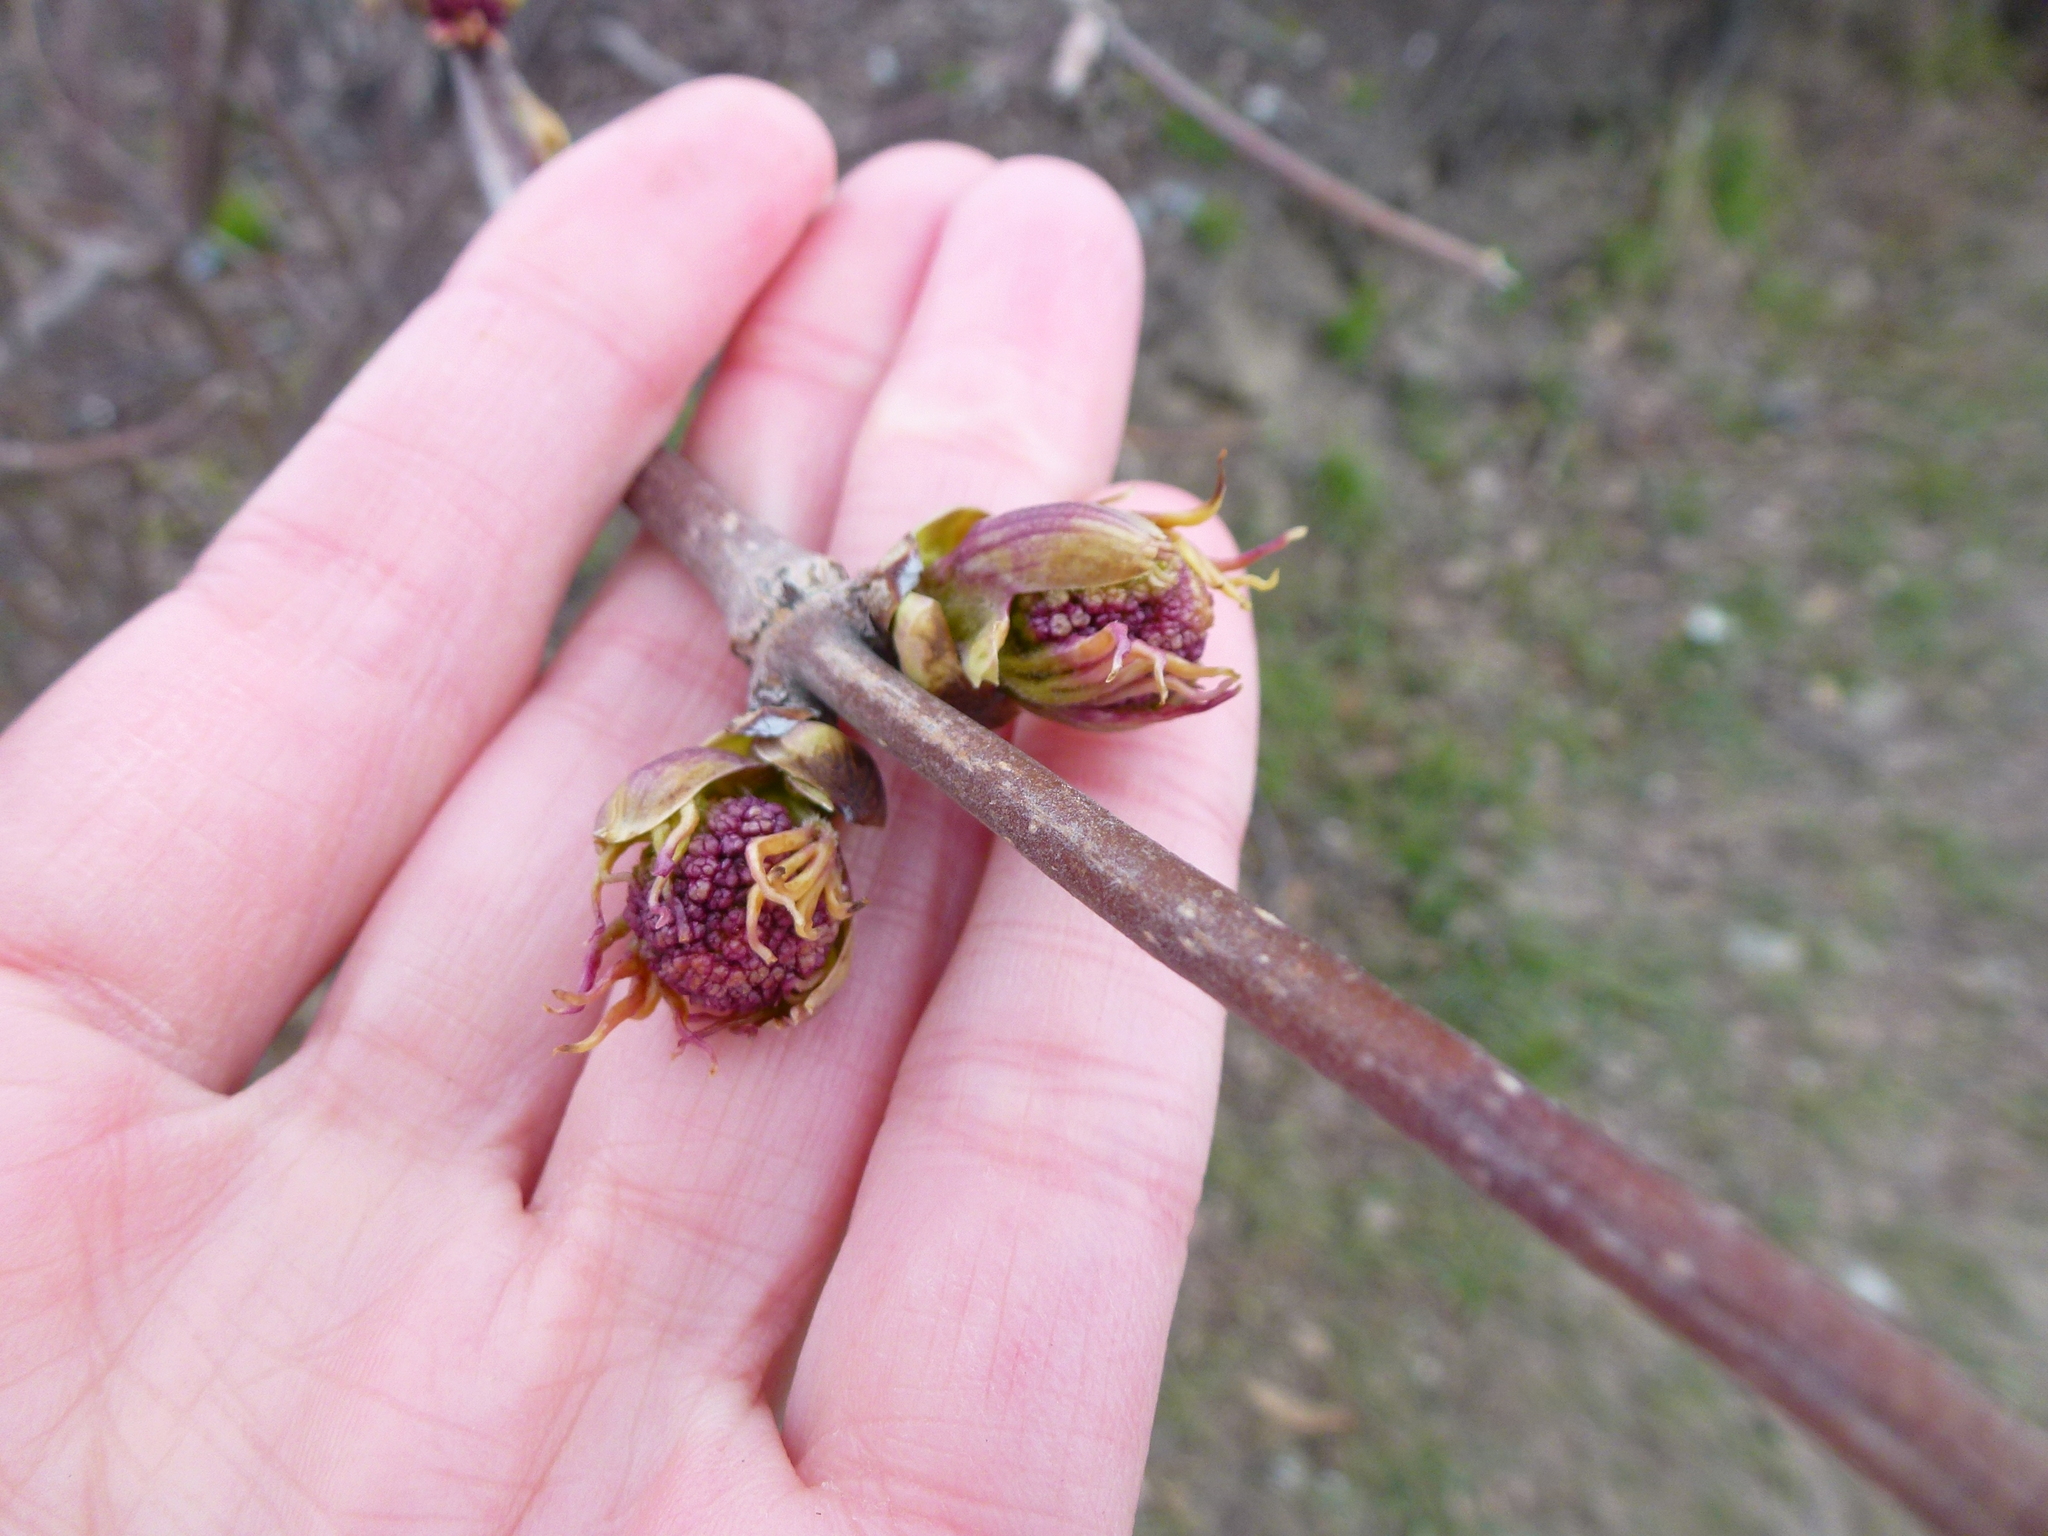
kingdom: Plantae
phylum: Tracheophyta
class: Magnoliopsida
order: Dipsacales
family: Viburnaceae
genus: Sambucus
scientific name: Sambucus sibirica
